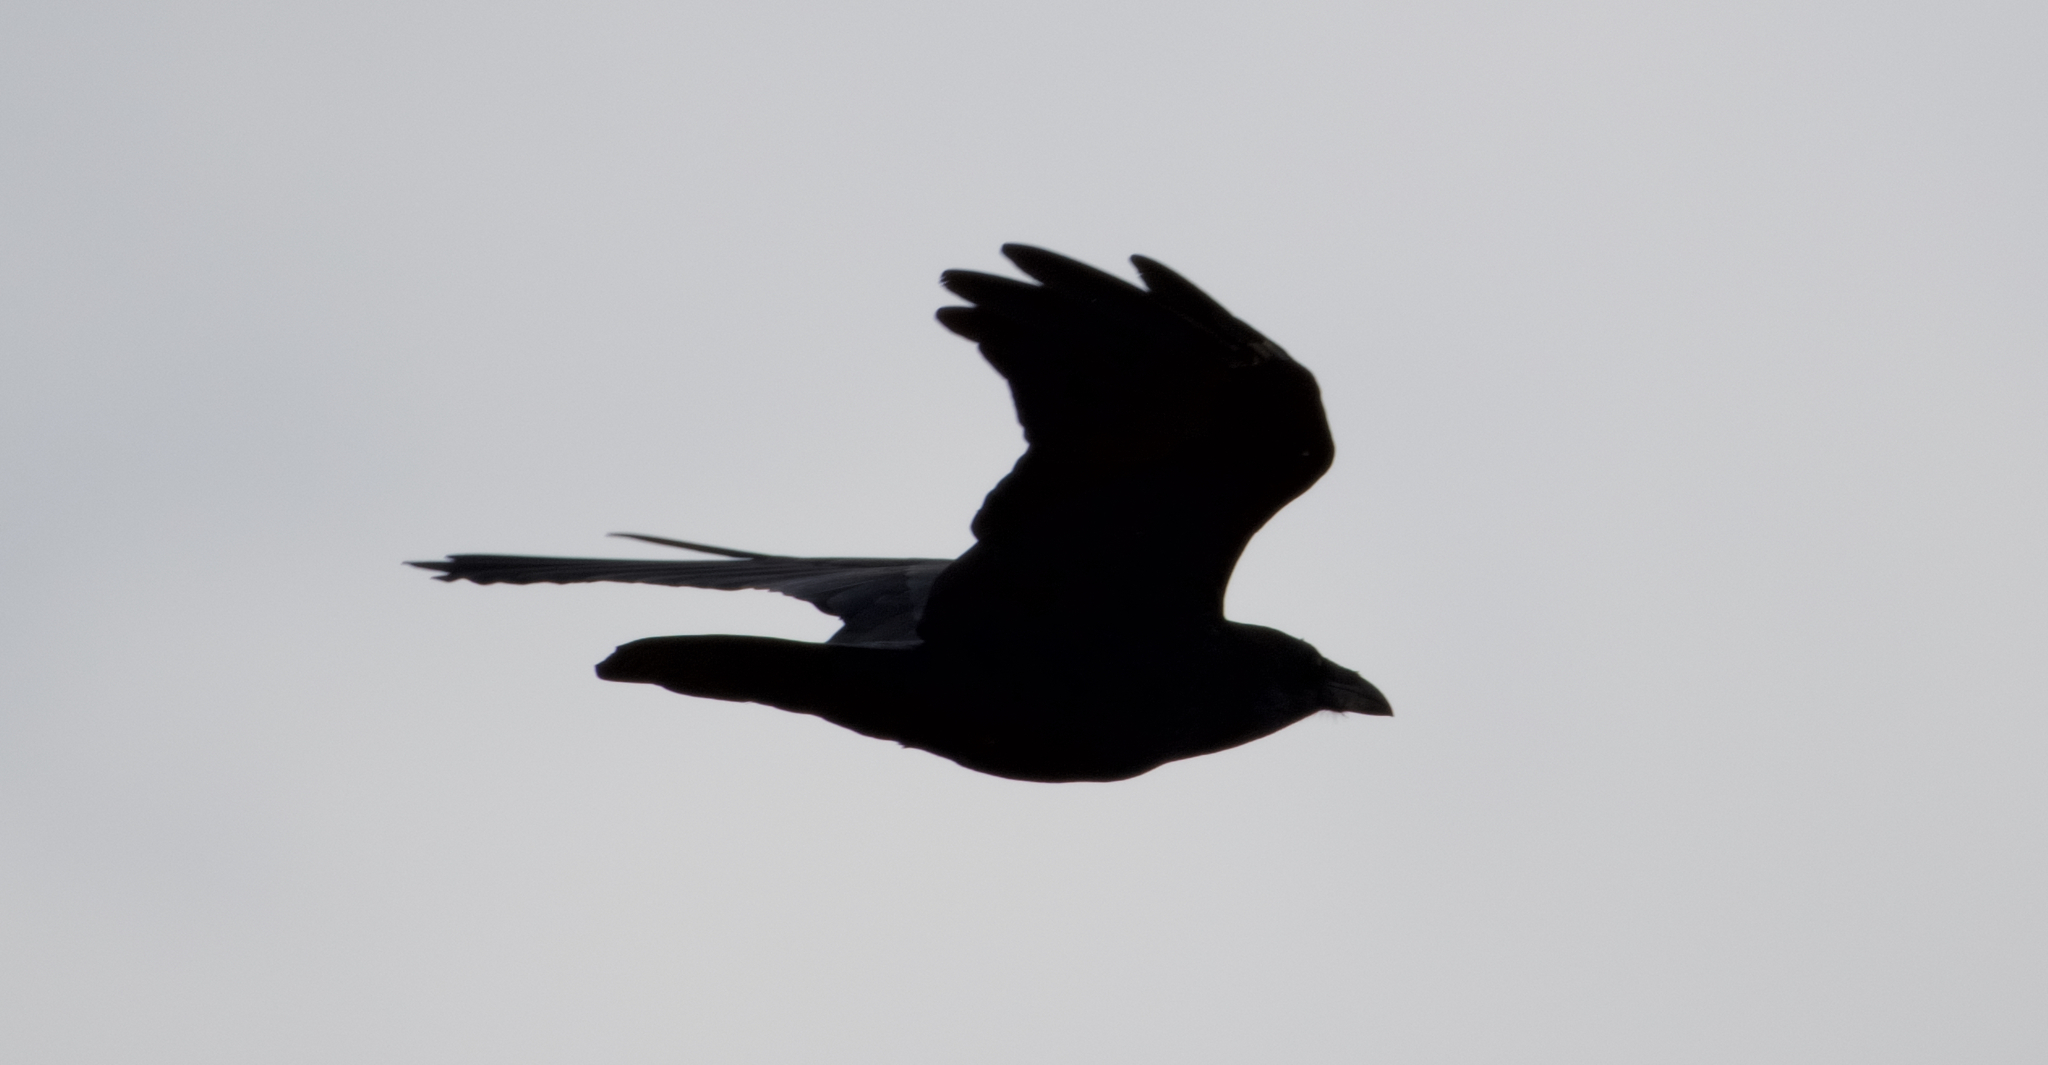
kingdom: Animalia
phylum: Chordata
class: Aves
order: Passeriformes
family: Corvidae
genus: Corvus
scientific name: Corvus corax
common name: Common raven
